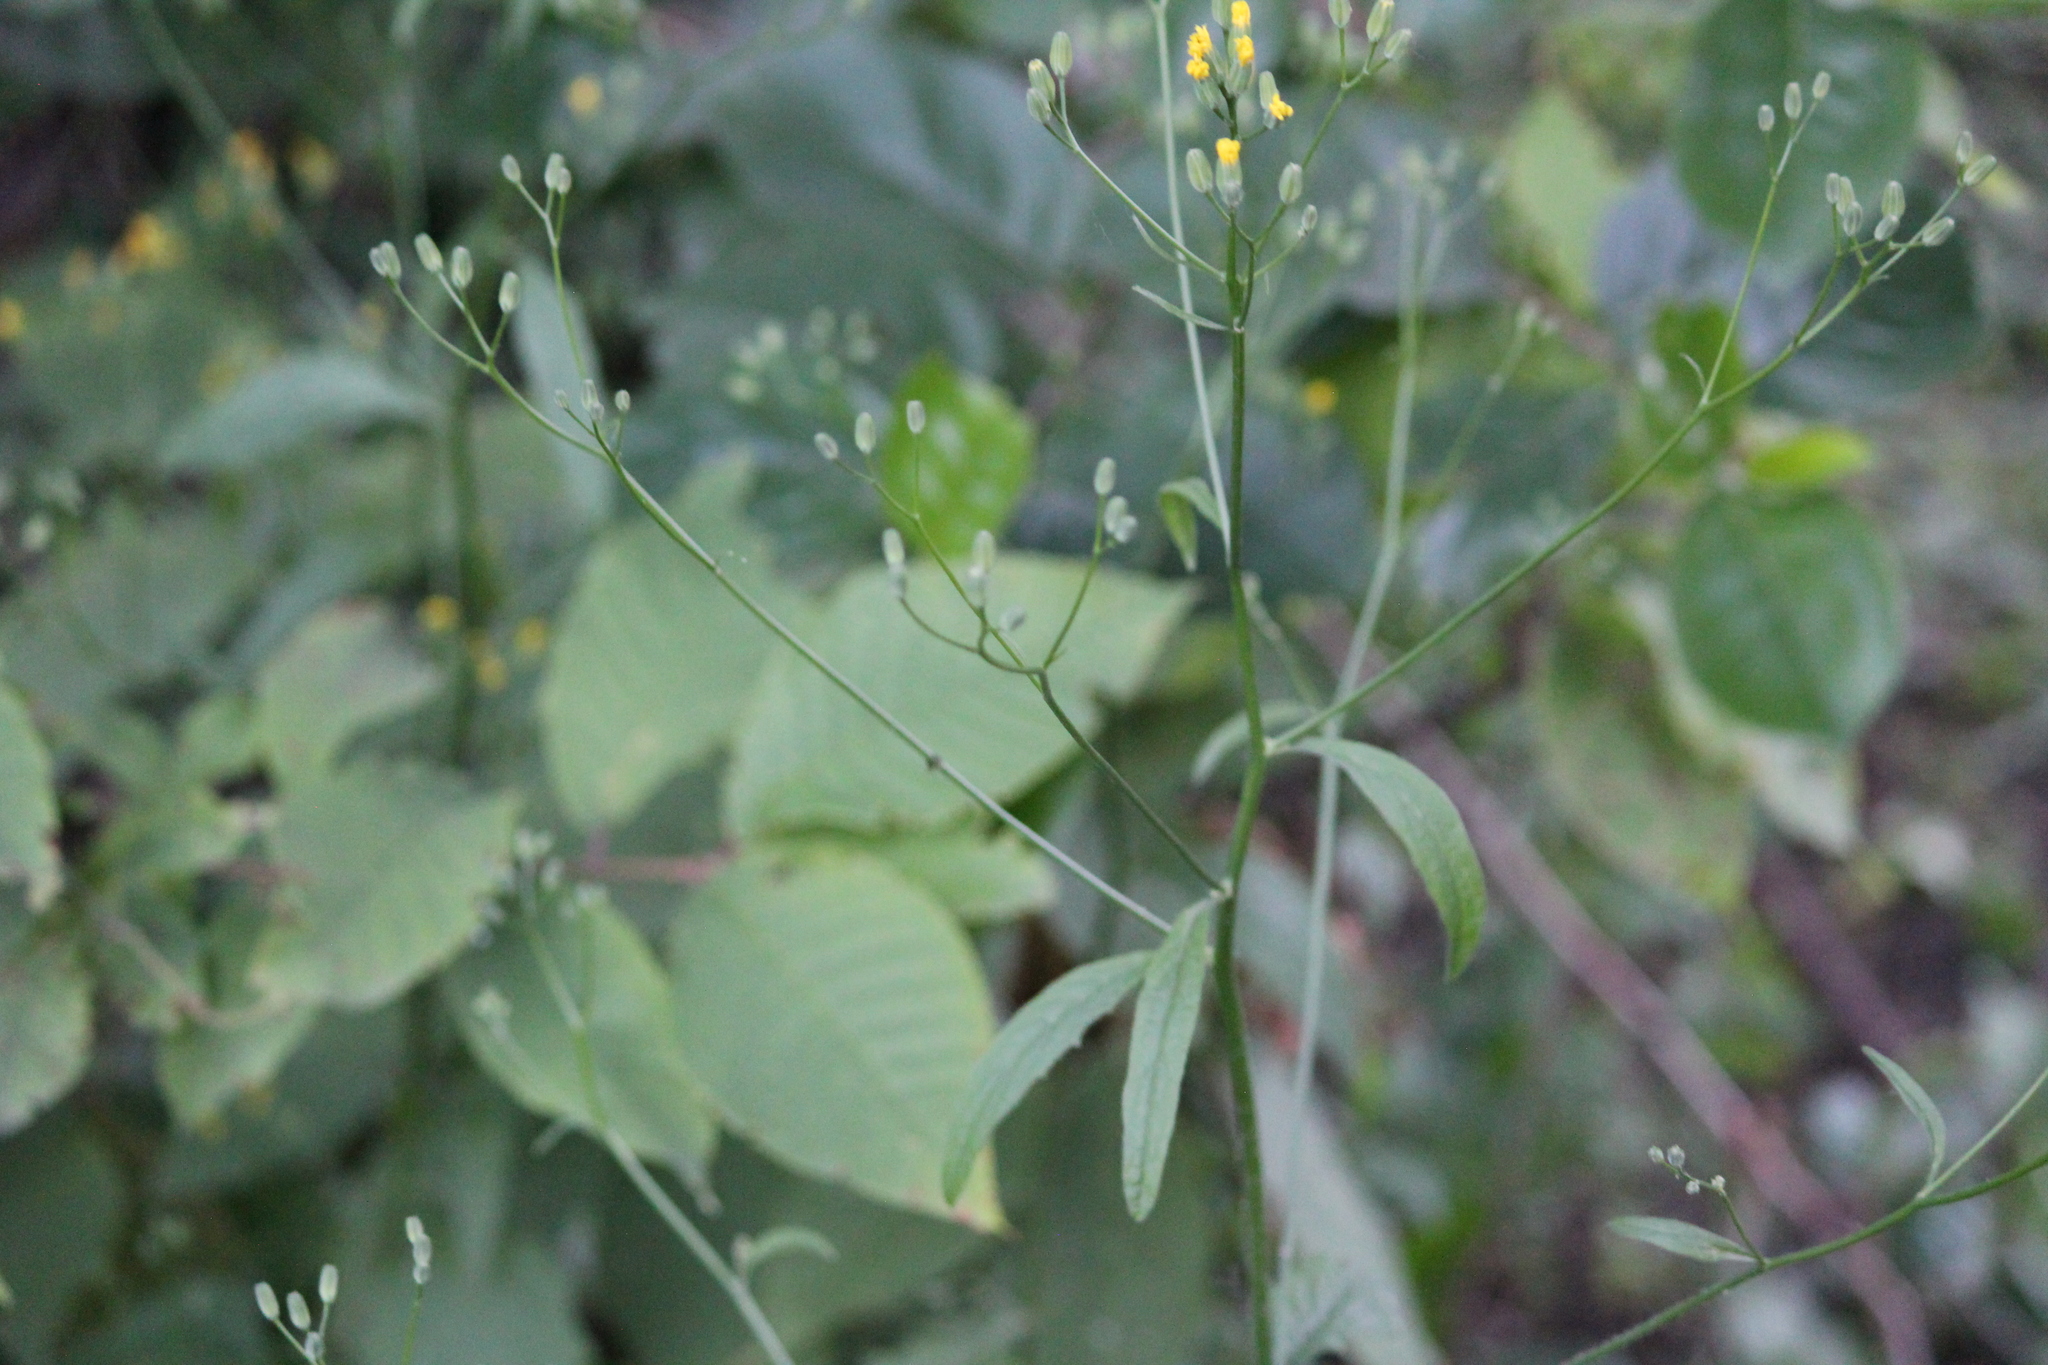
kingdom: Plantae
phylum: Tracheophyta
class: Magnoliopsida
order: Asterales
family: Asteraceae
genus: Lapsana
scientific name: Lapsana communis
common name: Nipplewort
